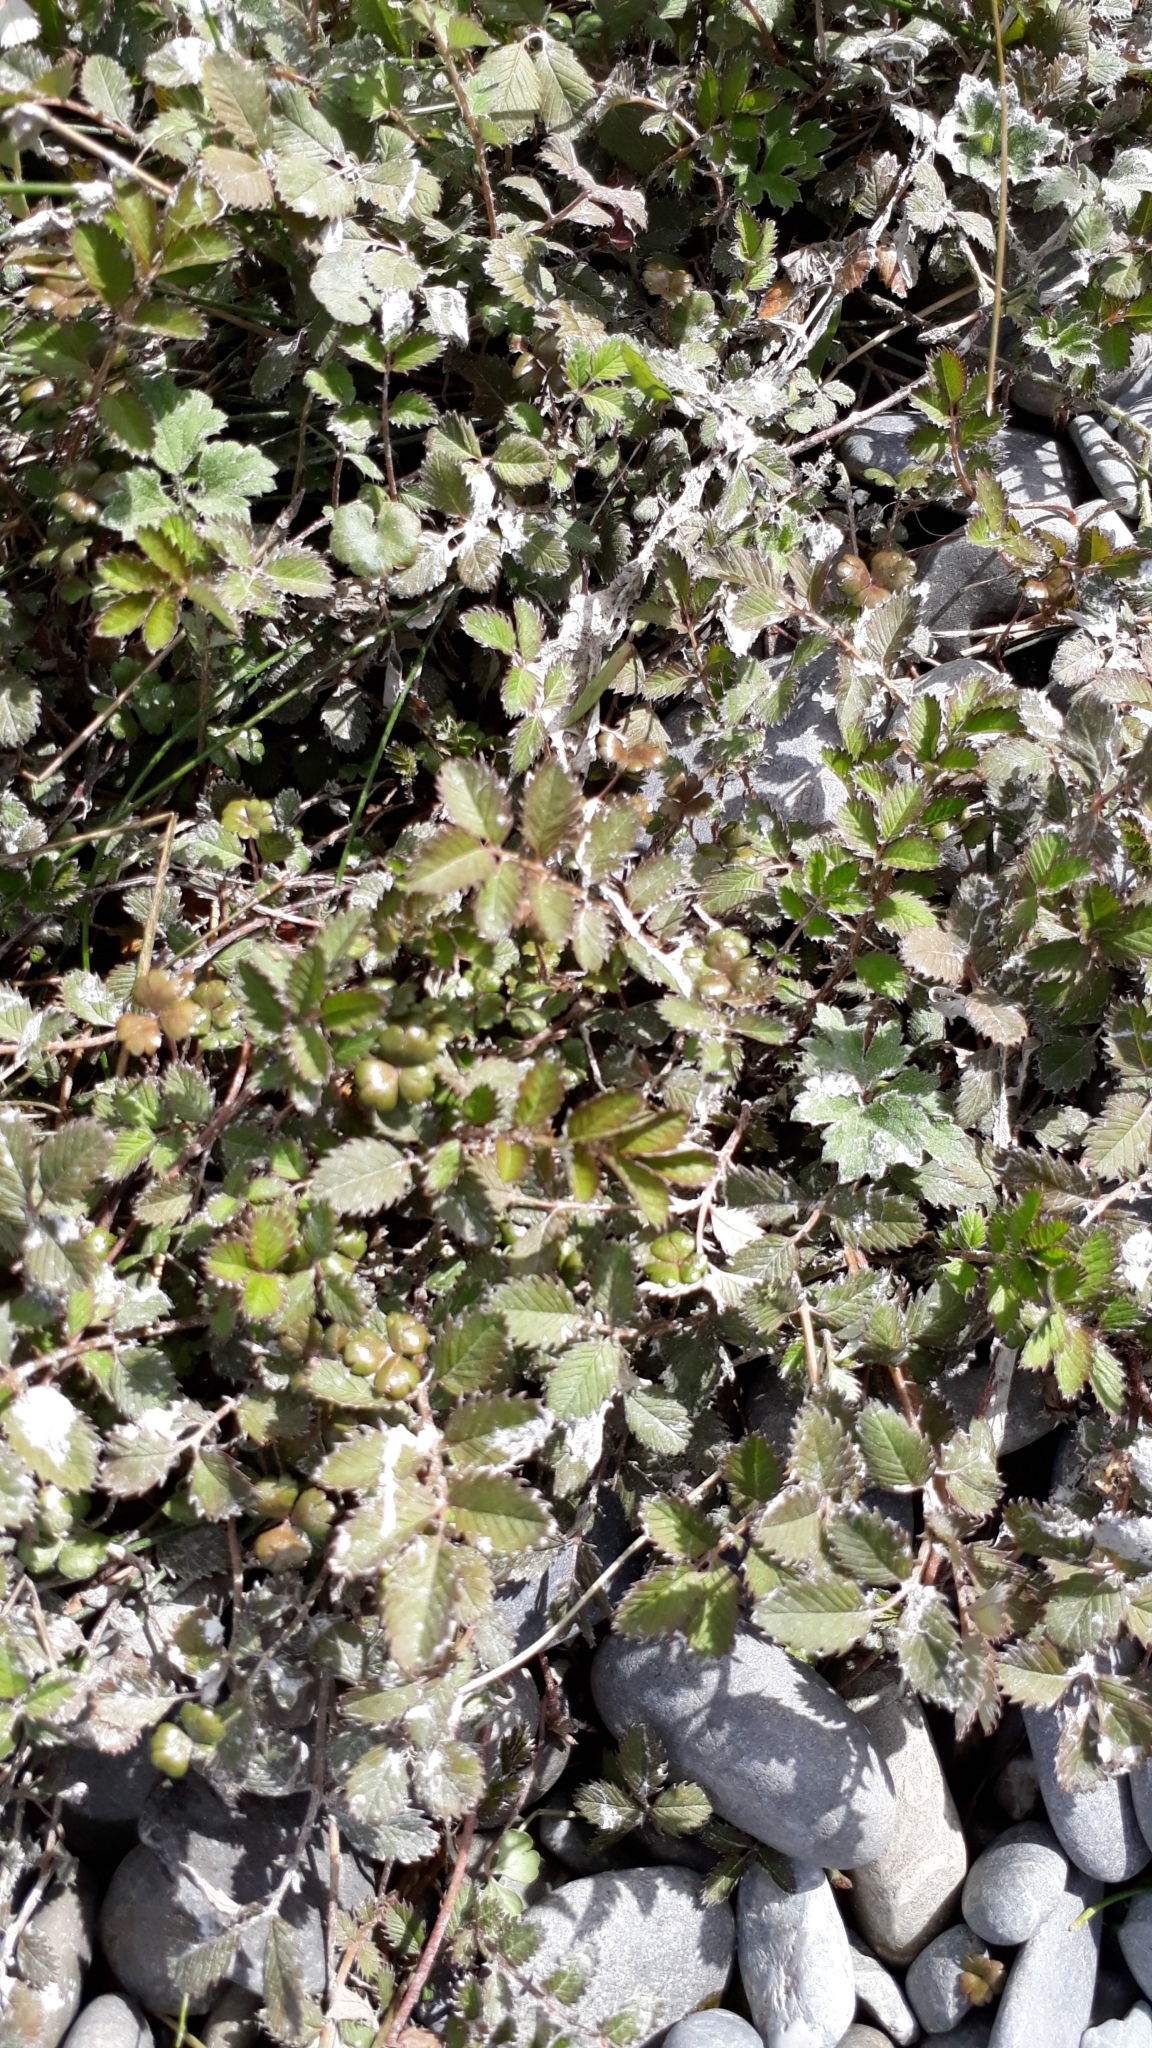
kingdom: Plantae
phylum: Tracheophyta
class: Magnoliopsida
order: Rosales
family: Rosaceae
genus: Argentina
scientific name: Argentina anserinoides
